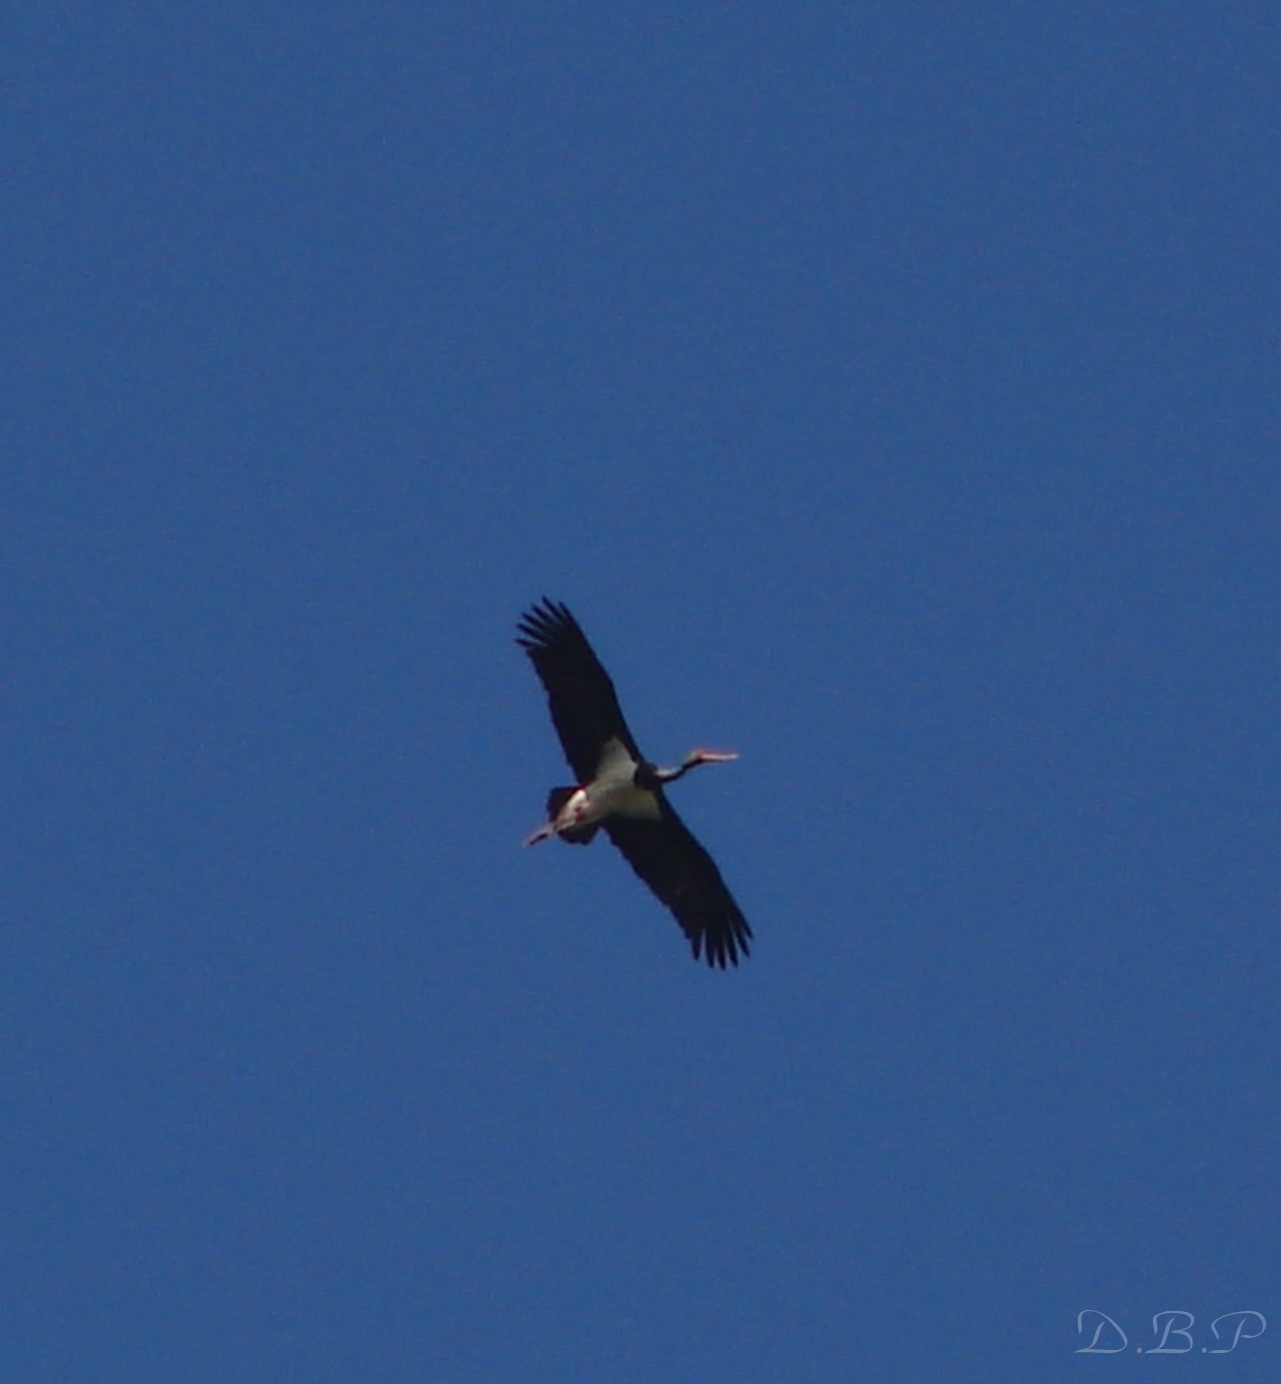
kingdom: Animalia
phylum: Chordata
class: Aves
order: Ciconiiformes
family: Ciconiidae
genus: Ciconia
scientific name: Ciconia nigra
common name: Black stork
